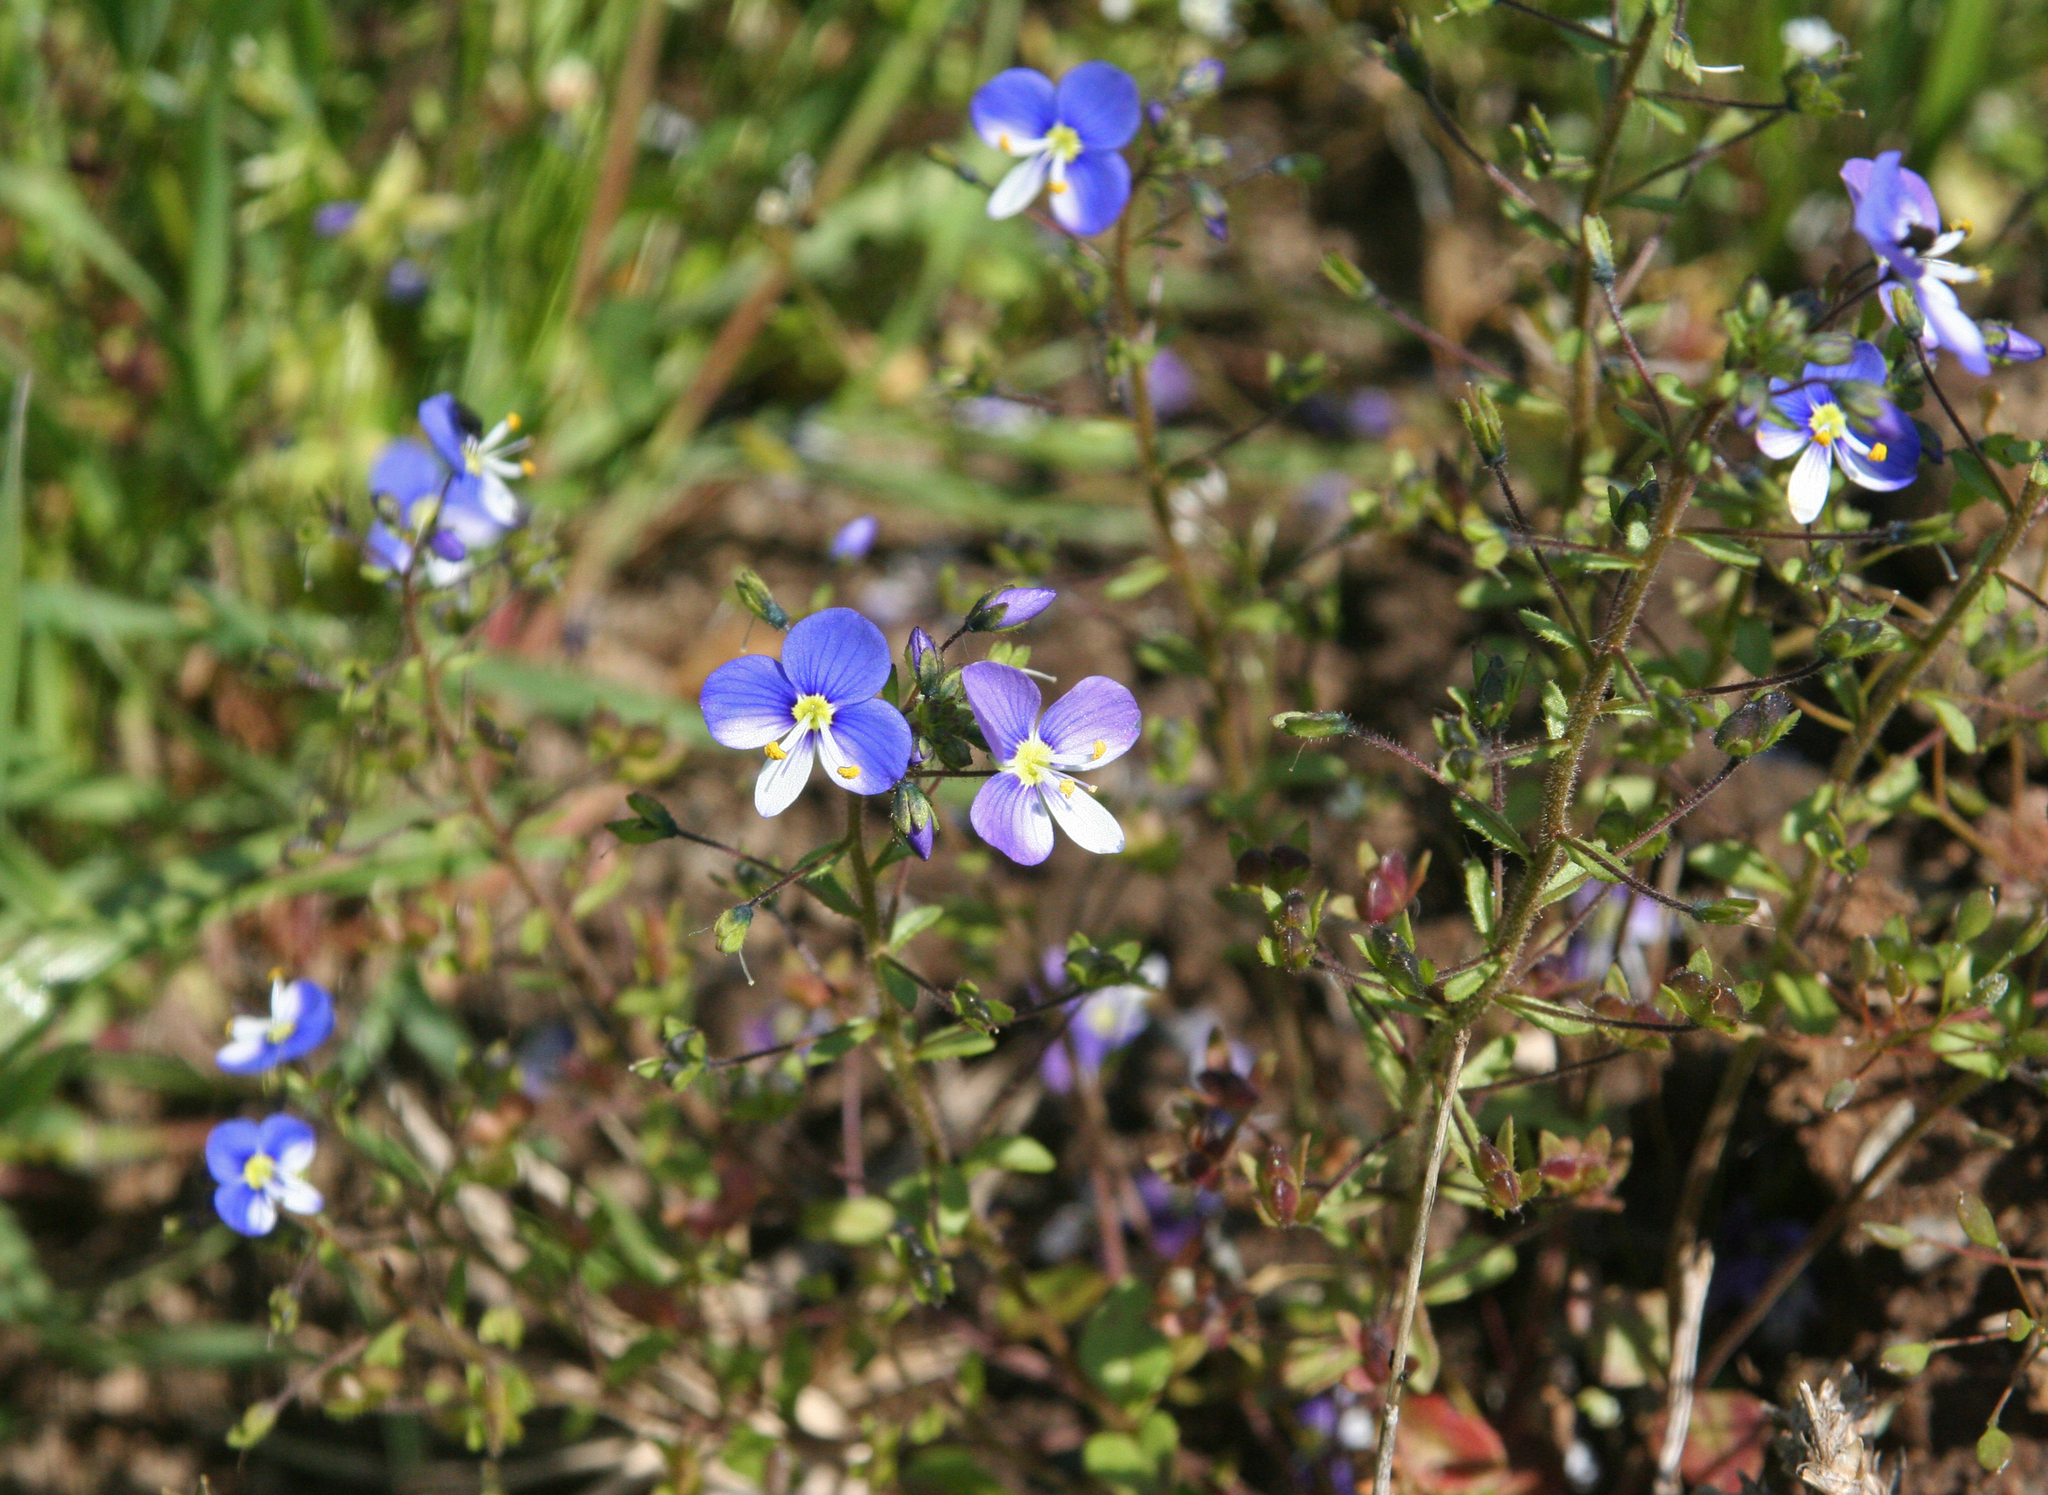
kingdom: Plantae
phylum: Tracheophyta
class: Magnoliopsida
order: Lamiales
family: Plantaginaceae
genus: Veronica
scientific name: Veronica syriaca
